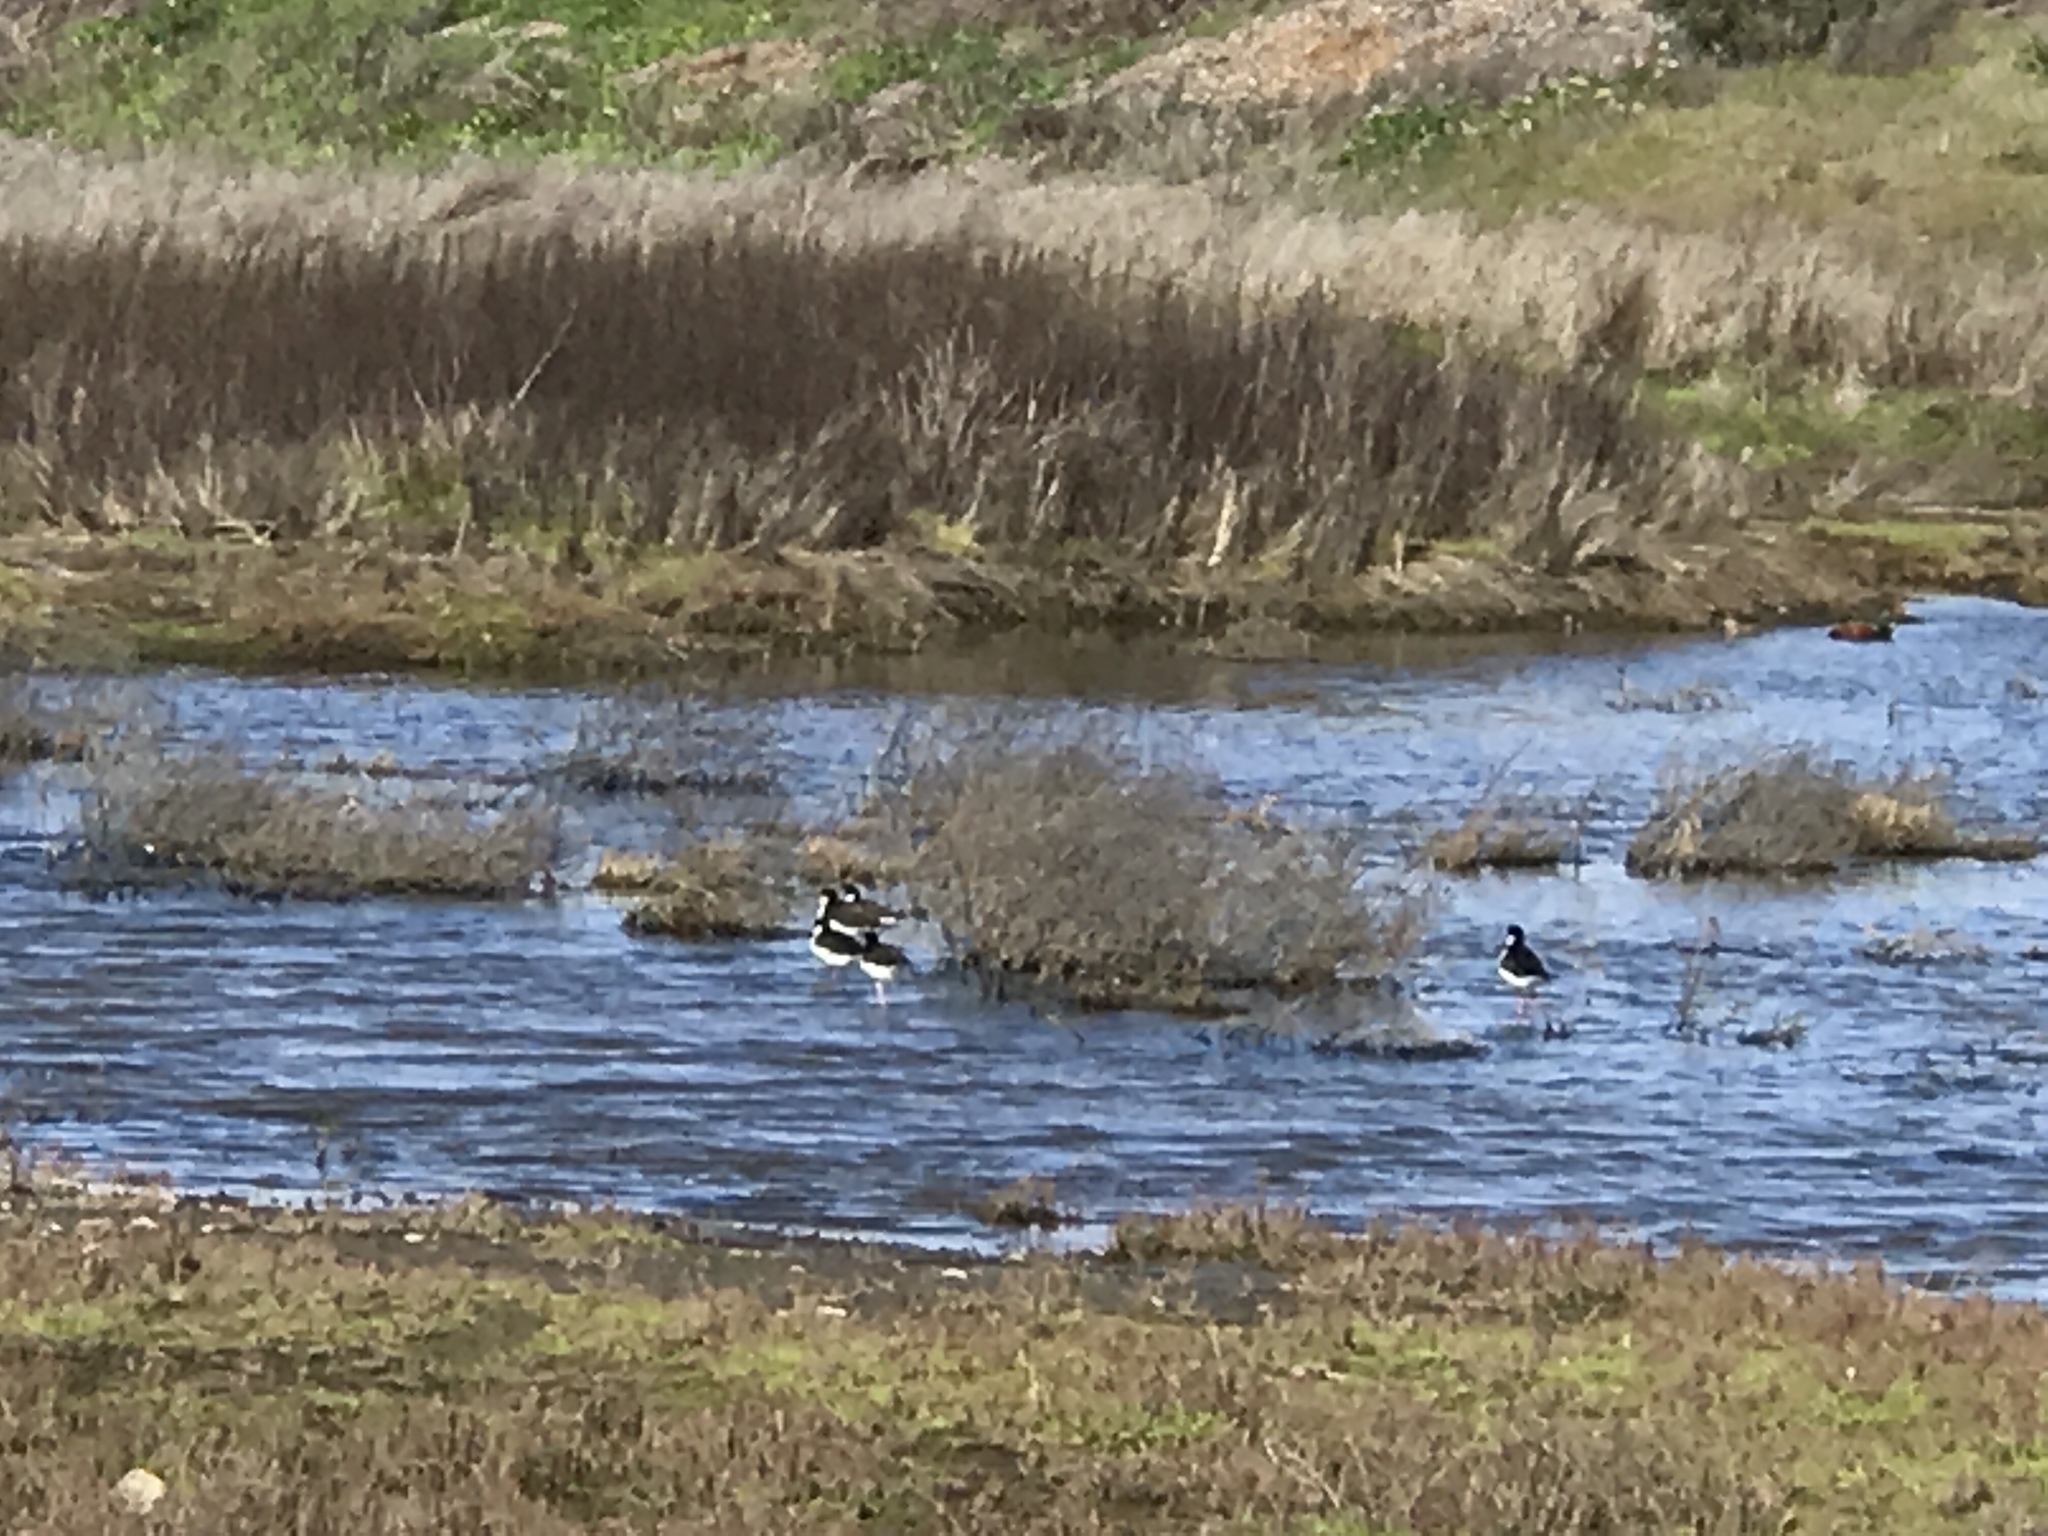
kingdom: Animalia
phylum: Chordata
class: Aves
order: Charadriiformes
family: Recurvirostridae
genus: Himantopus
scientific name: Himantopus mexicanus
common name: Black-necked stilt
